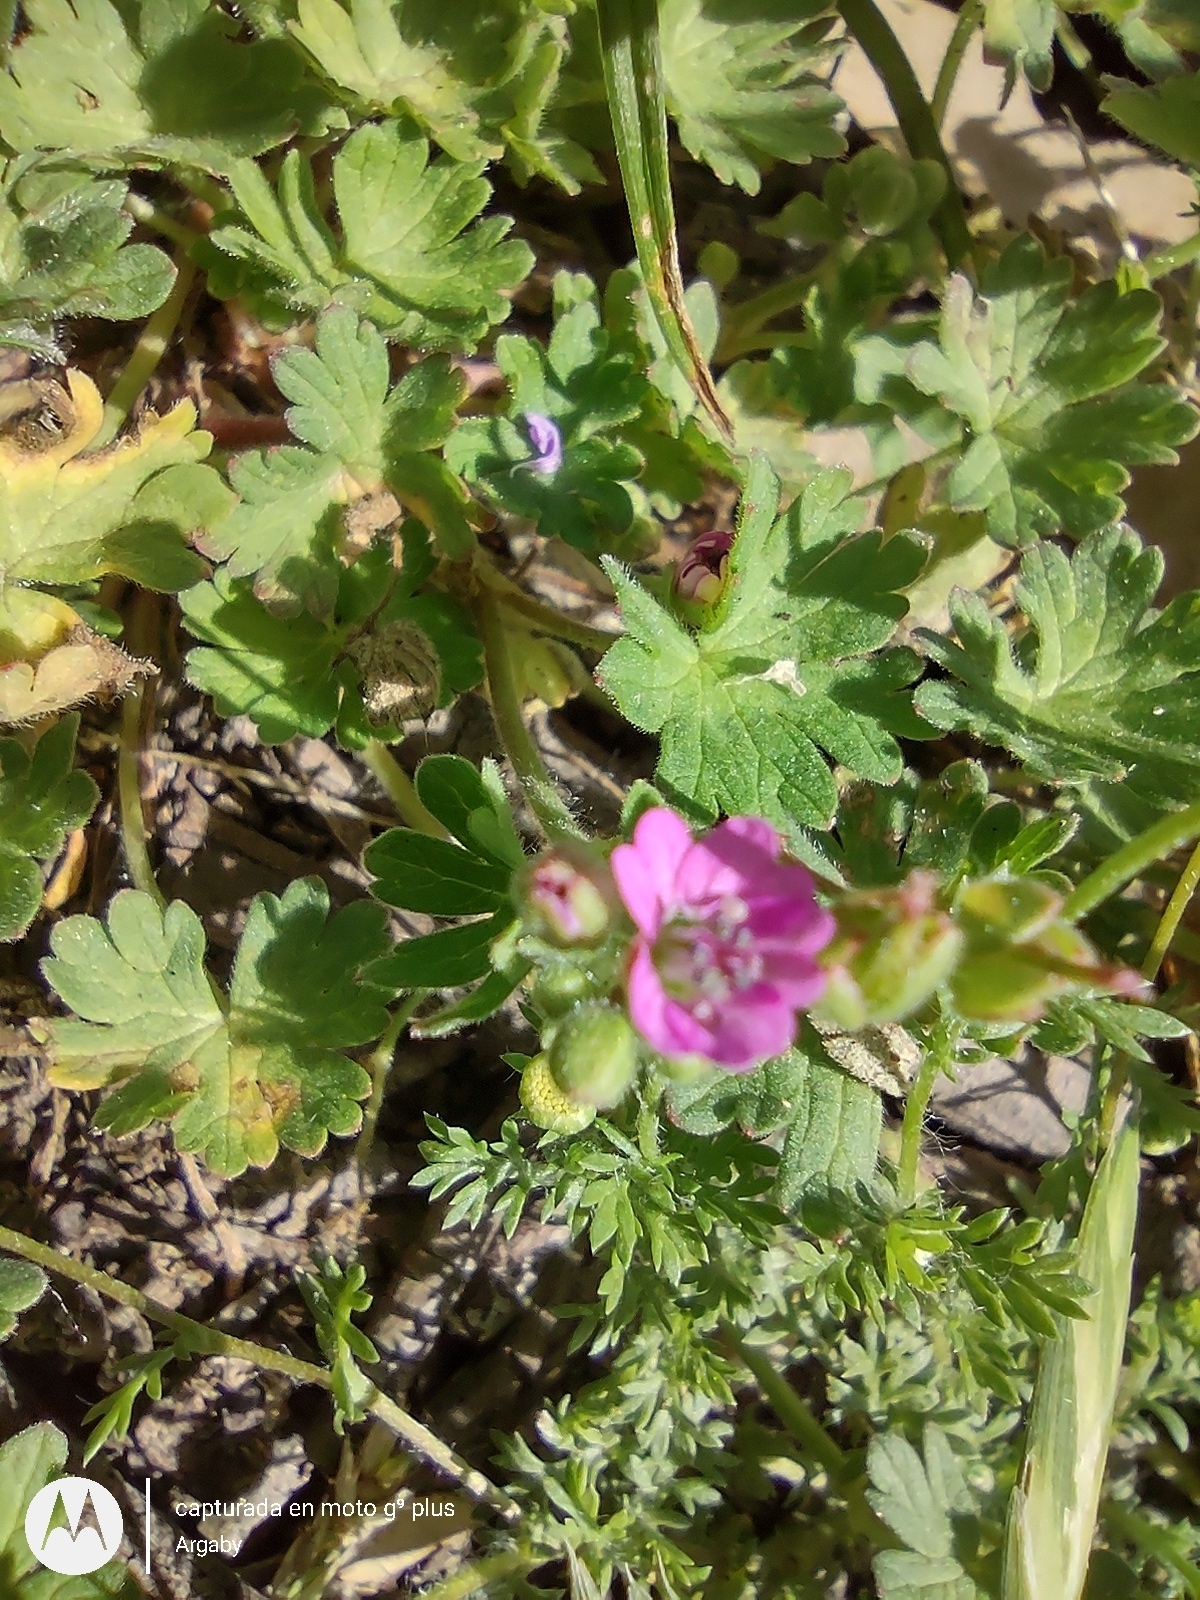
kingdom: Plantae
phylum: Tracheophyta
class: Magnoliopsida
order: Geraniales
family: Geraniaceae
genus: Geranium
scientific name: Geranium molle
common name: Dove's-foot crane's-bill
